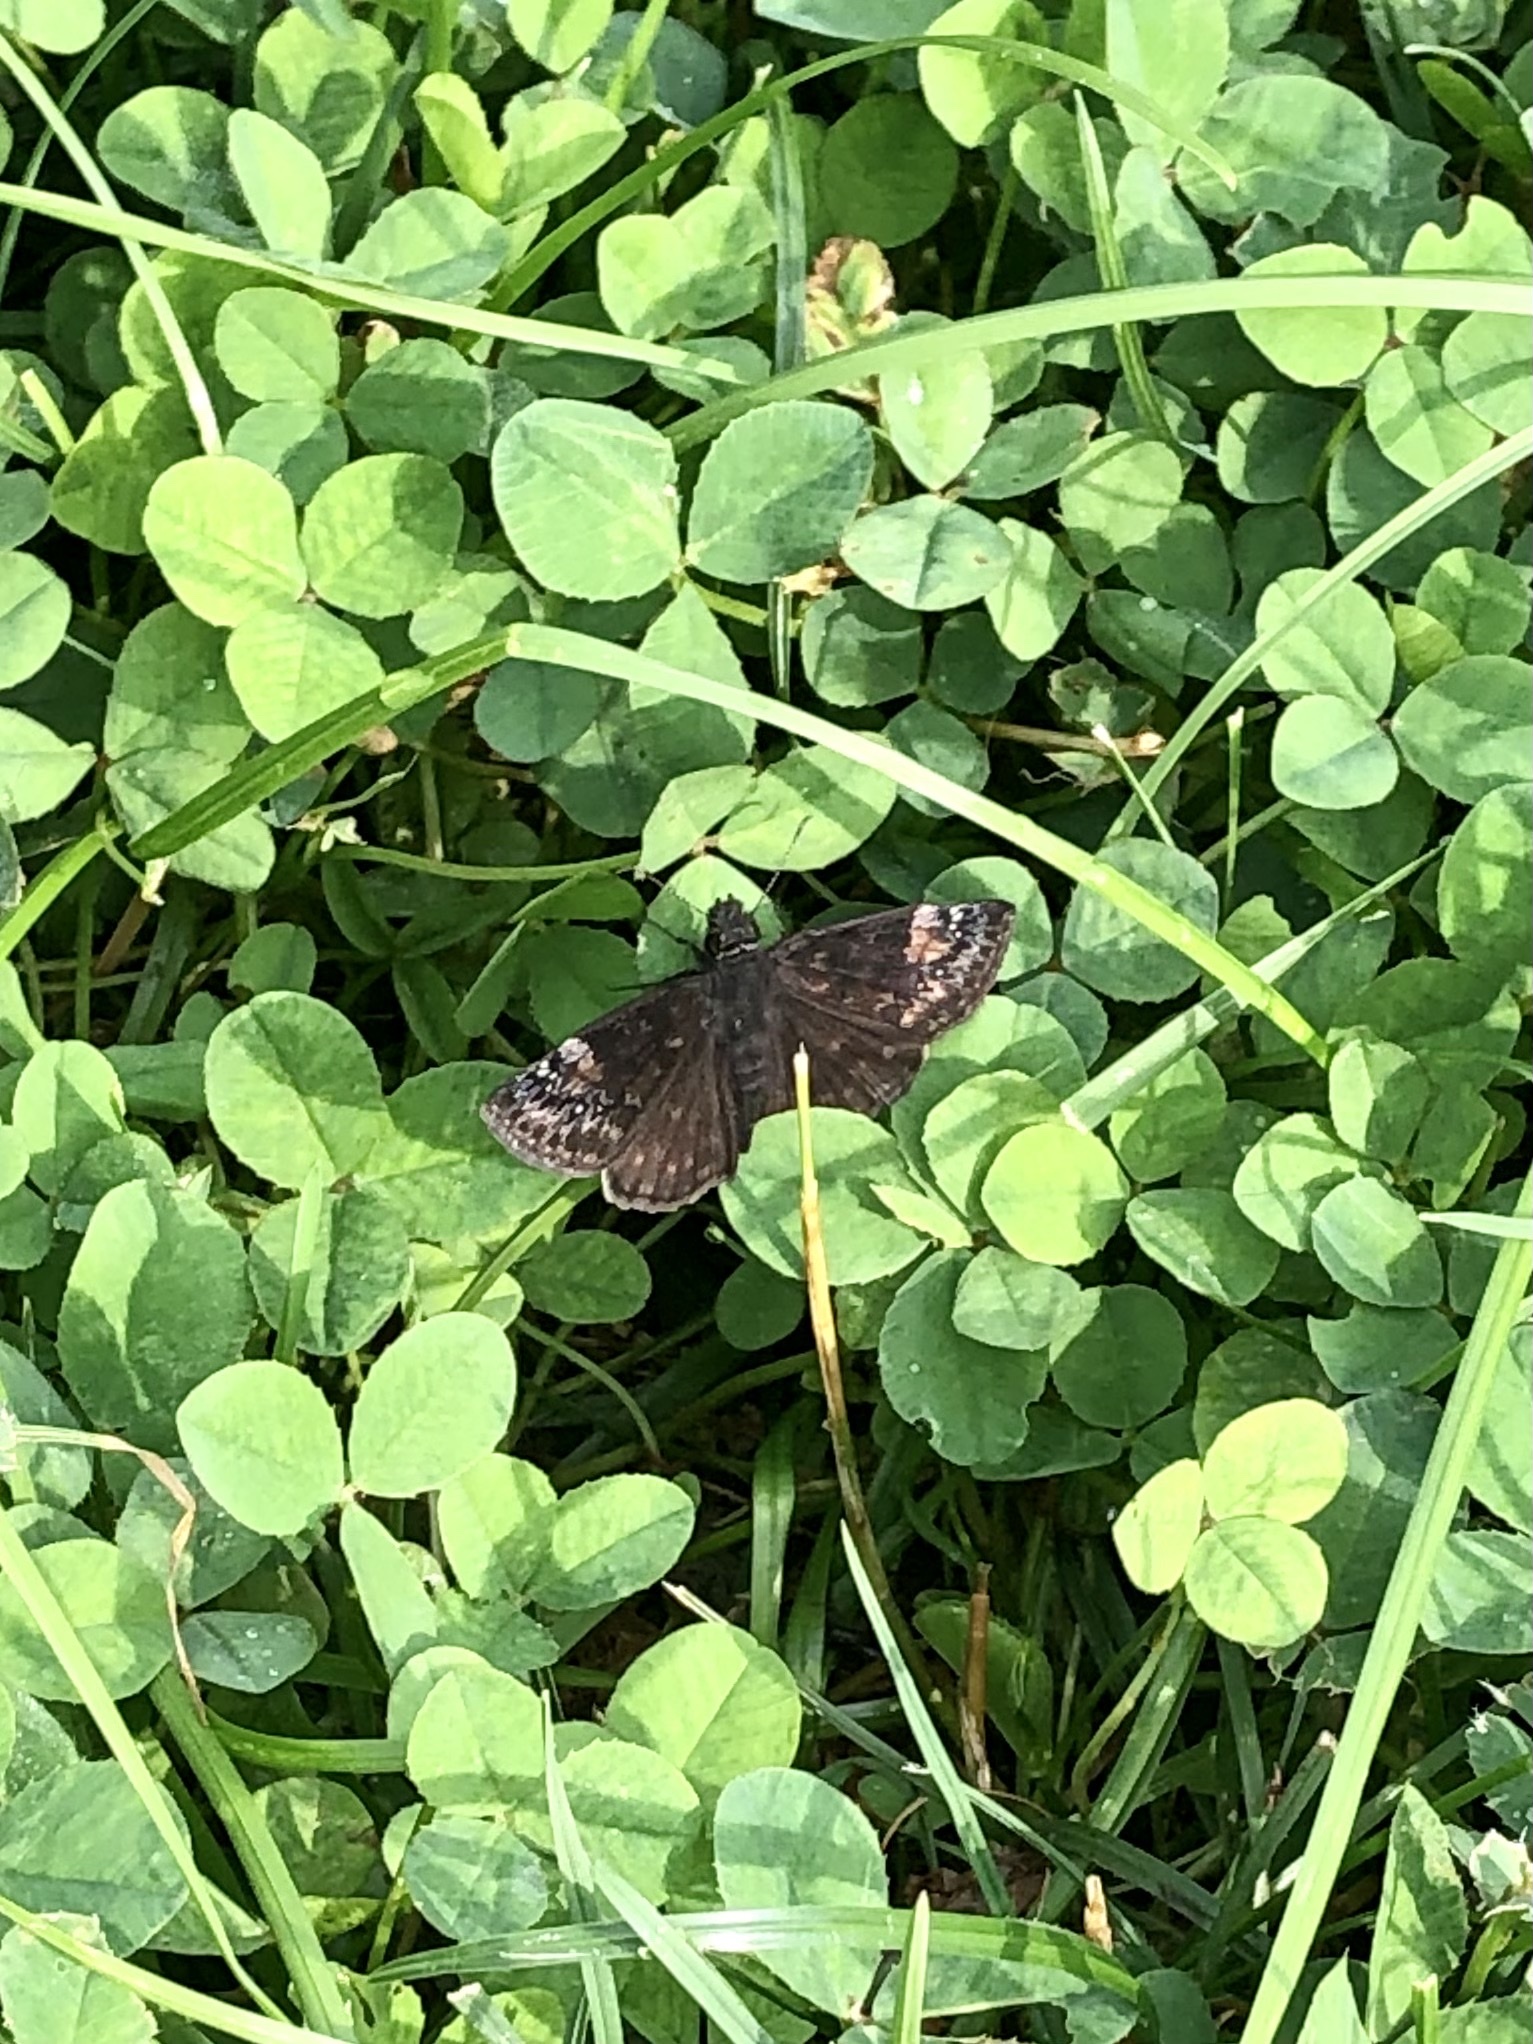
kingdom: Animalia
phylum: Arthropoda
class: Insecta
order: Lepidoptera
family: Hesperiidae
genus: Erynnis
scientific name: Erynnis baptisiae
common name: Wild indigo duskywing
